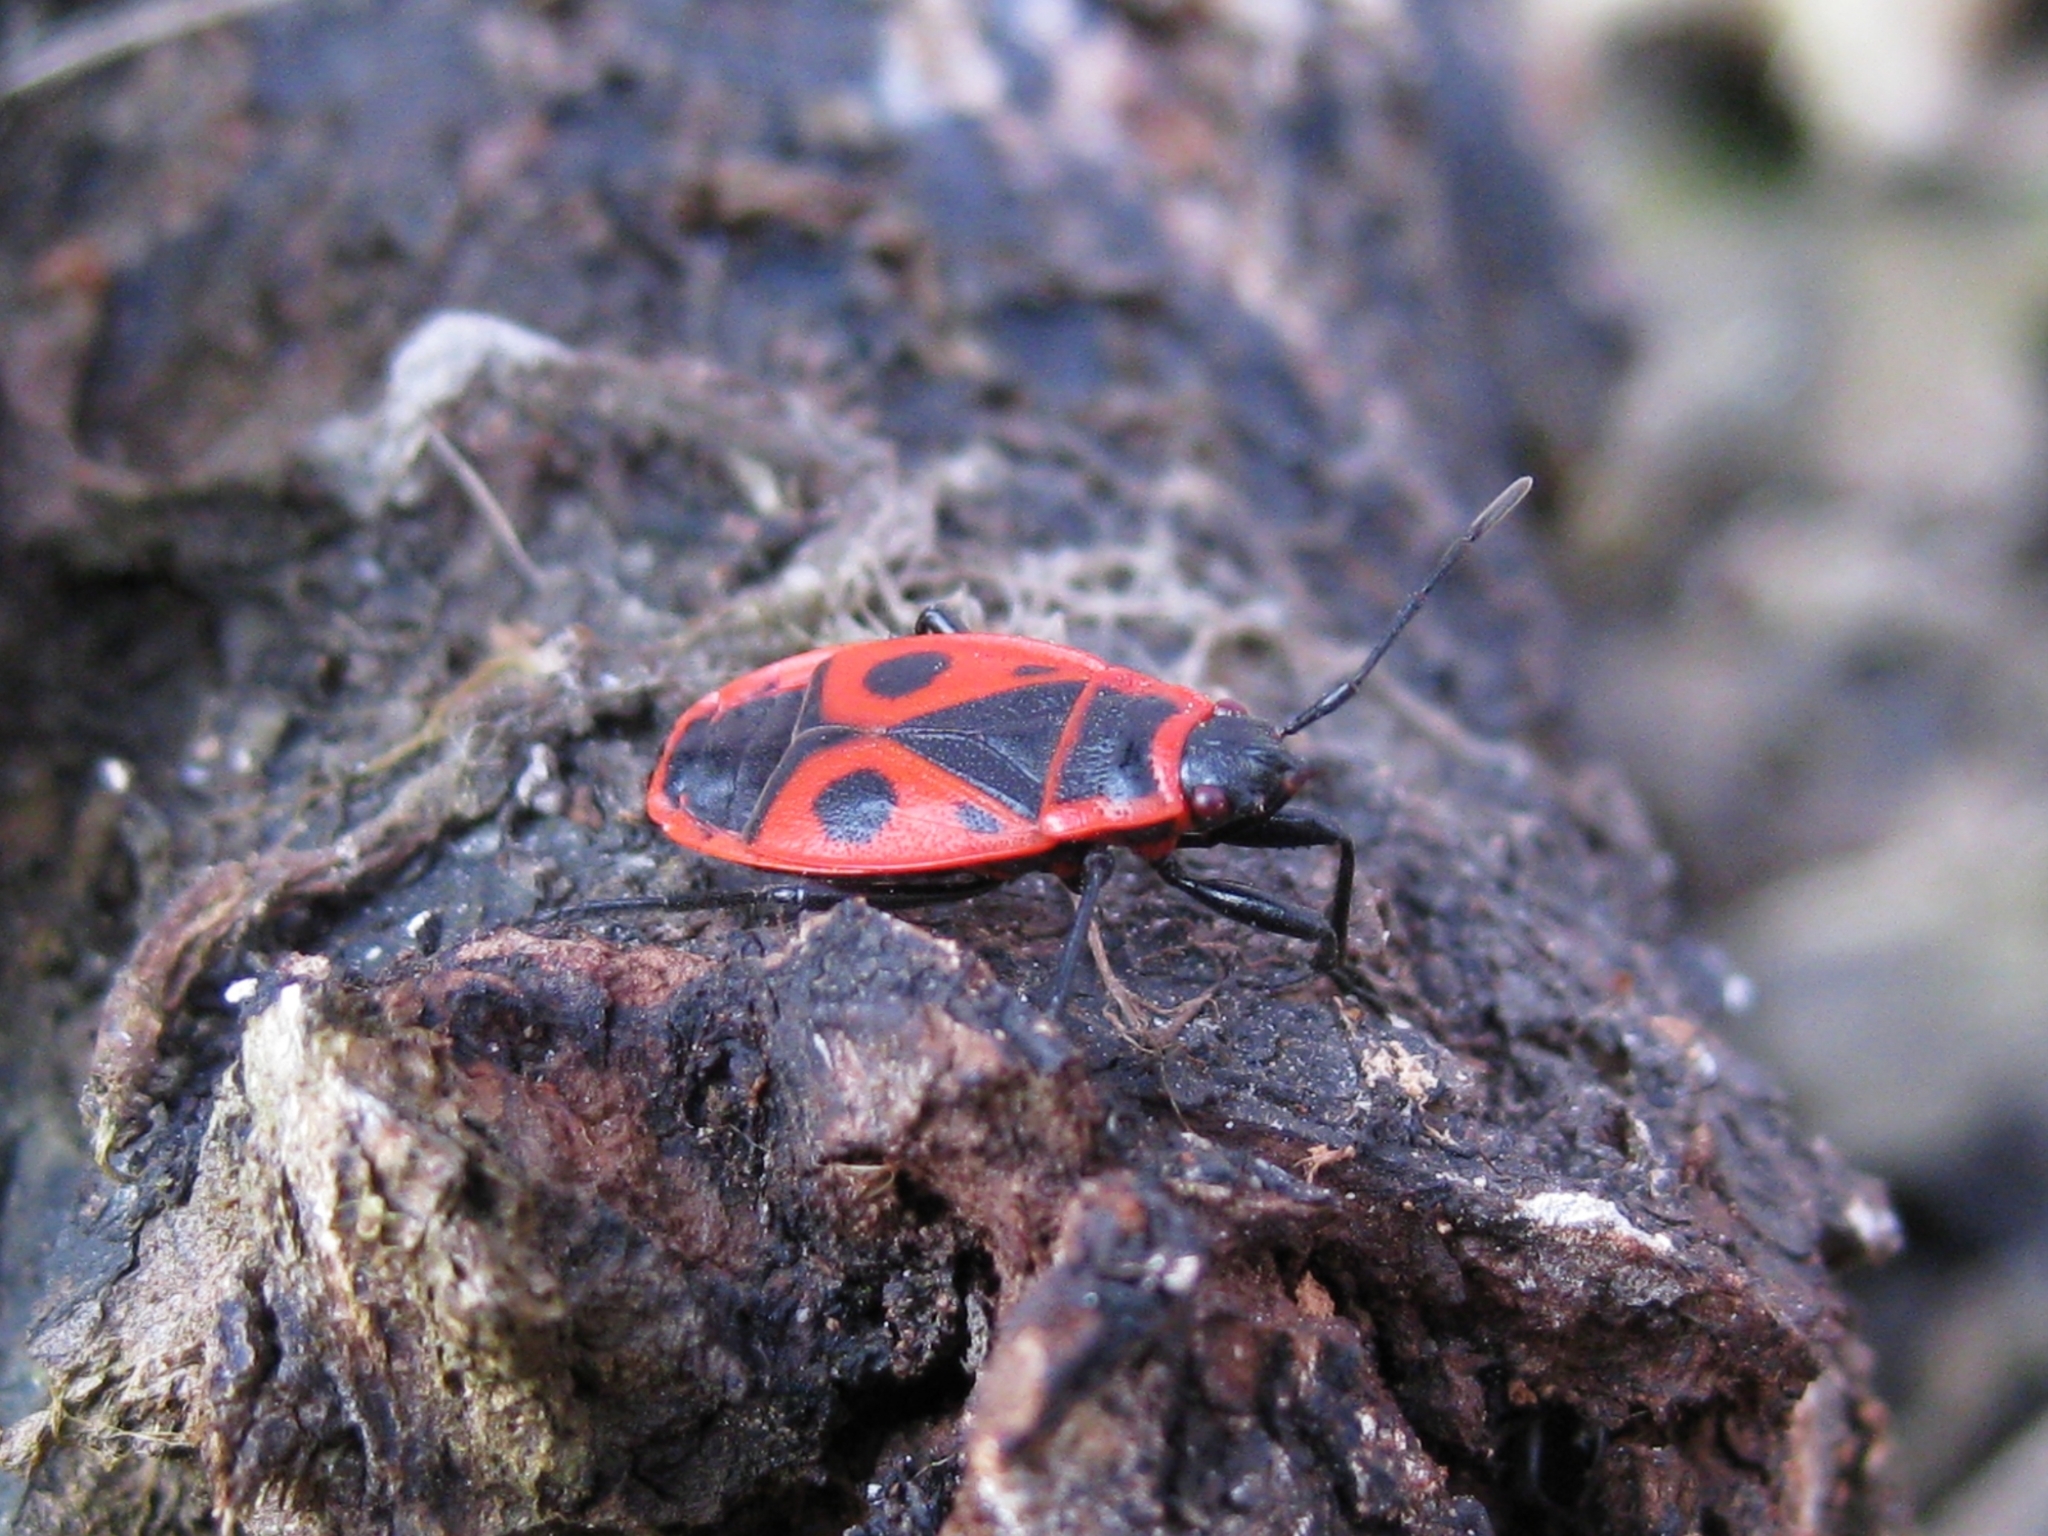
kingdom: Animalia
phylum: Arthropoda
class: Insecta
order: Hemiptera
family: Pyrrhocoridae
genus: Pyrrhocoris
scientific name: Pyrrhocoris apterus
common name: Firebug
